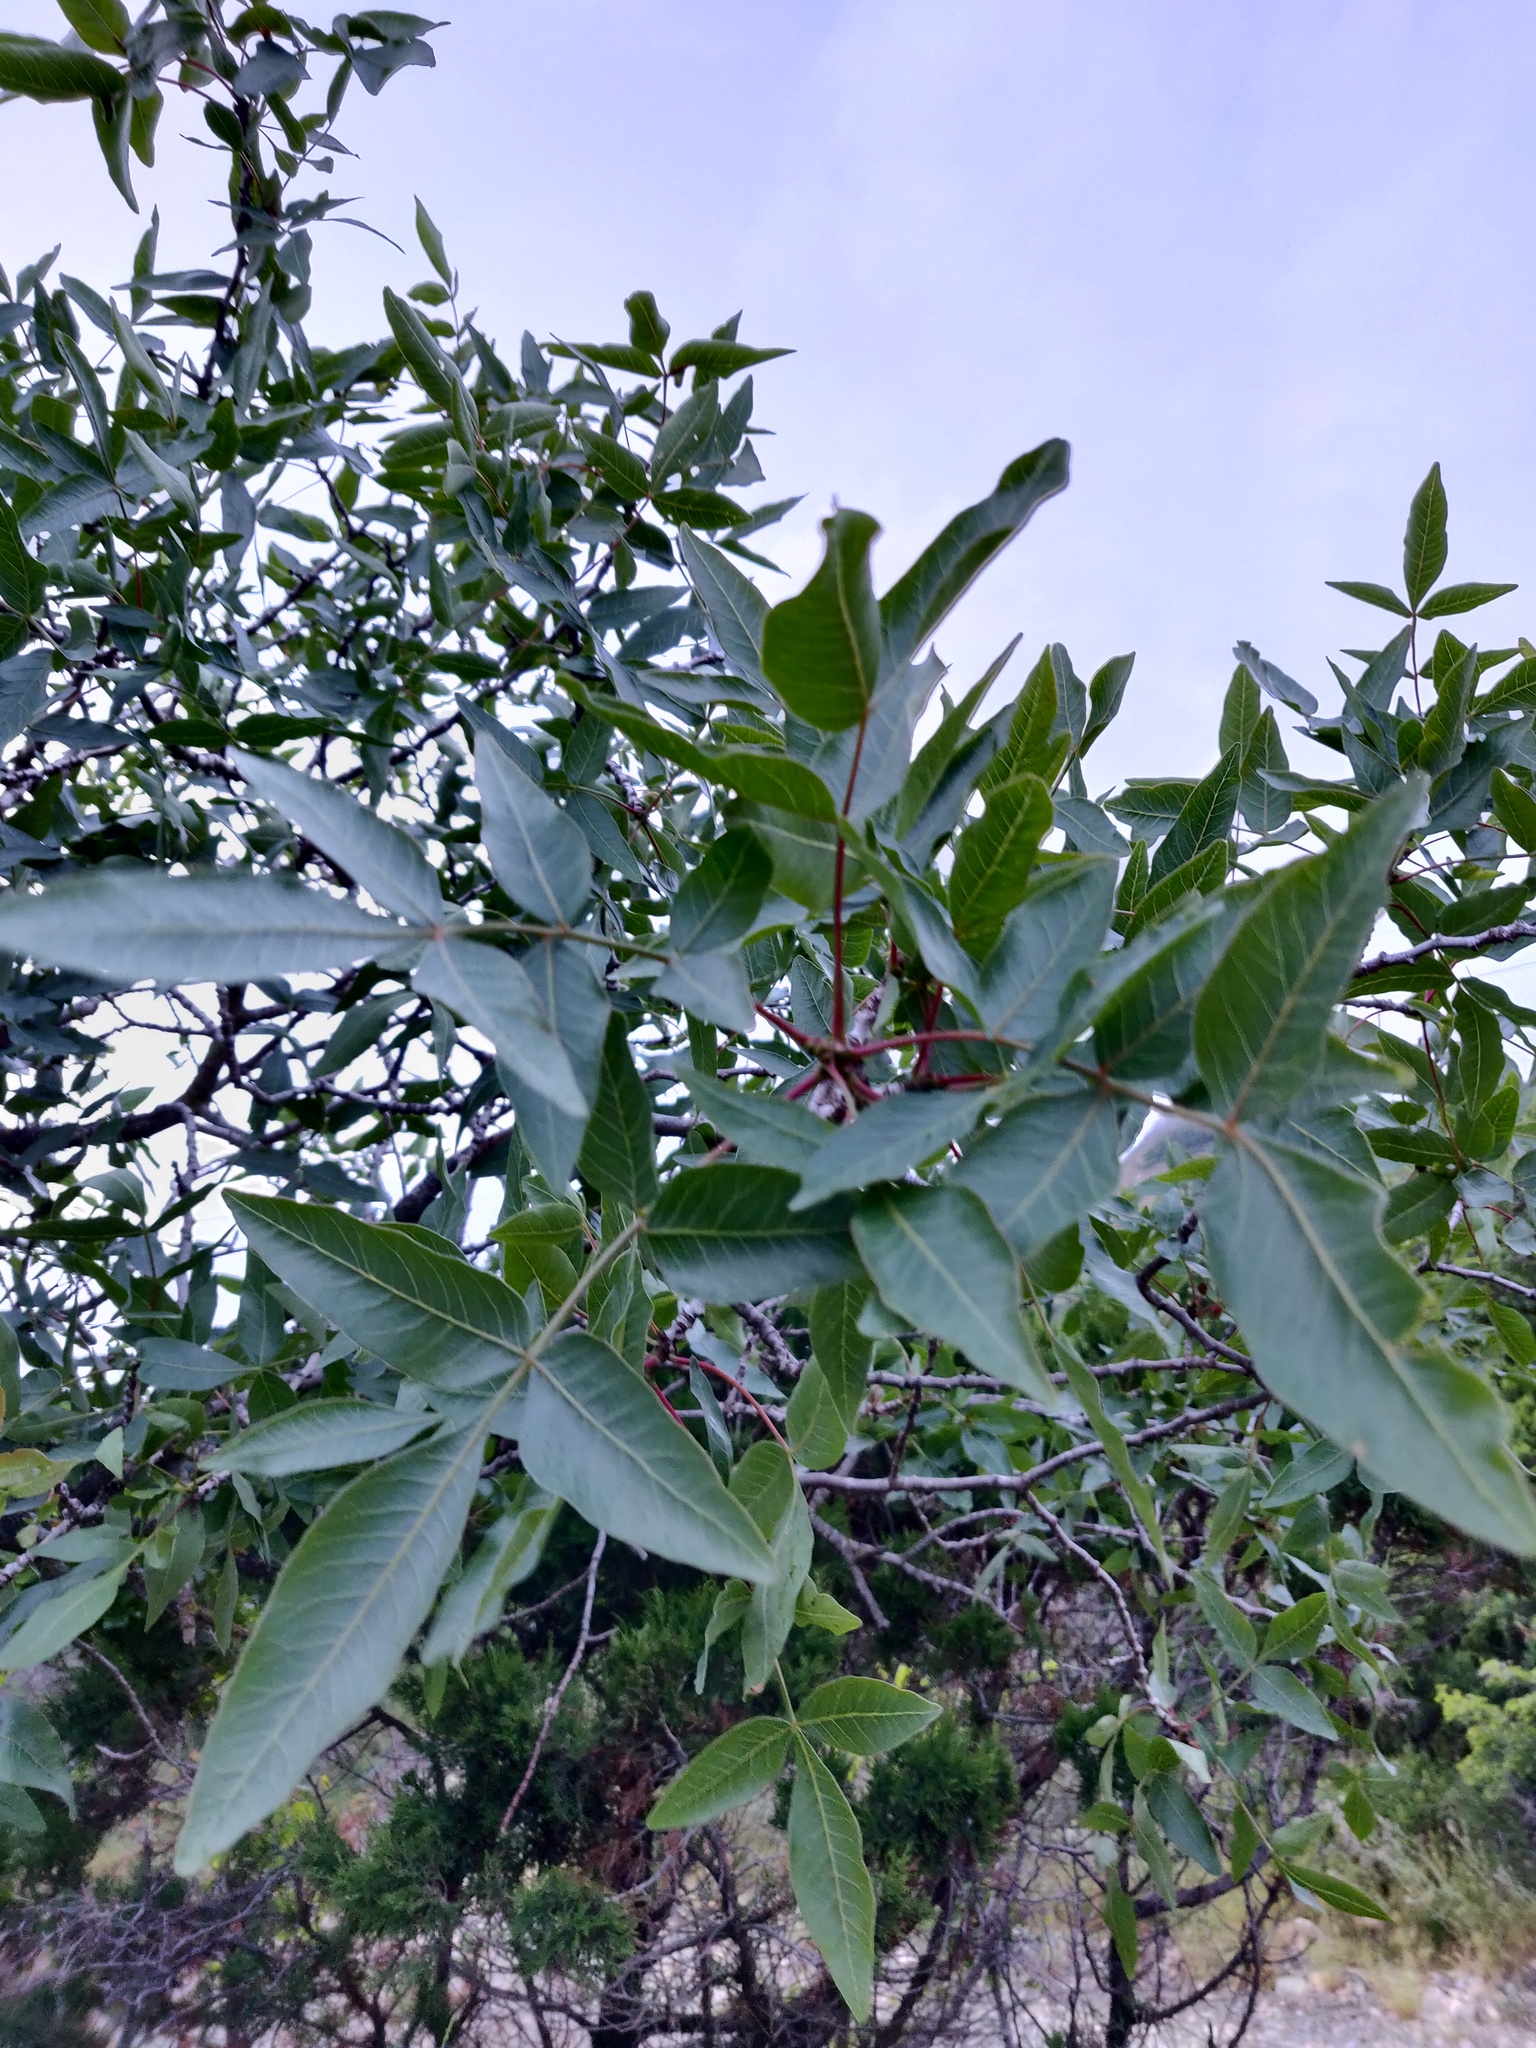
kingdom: Plantae
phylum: Tracheophyta
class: Magnoliopsida
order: Sapindales
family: Anacardiaceae
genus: Pistacia
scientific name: Pistacia atlantica
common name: Mt. atlas mastic tree
